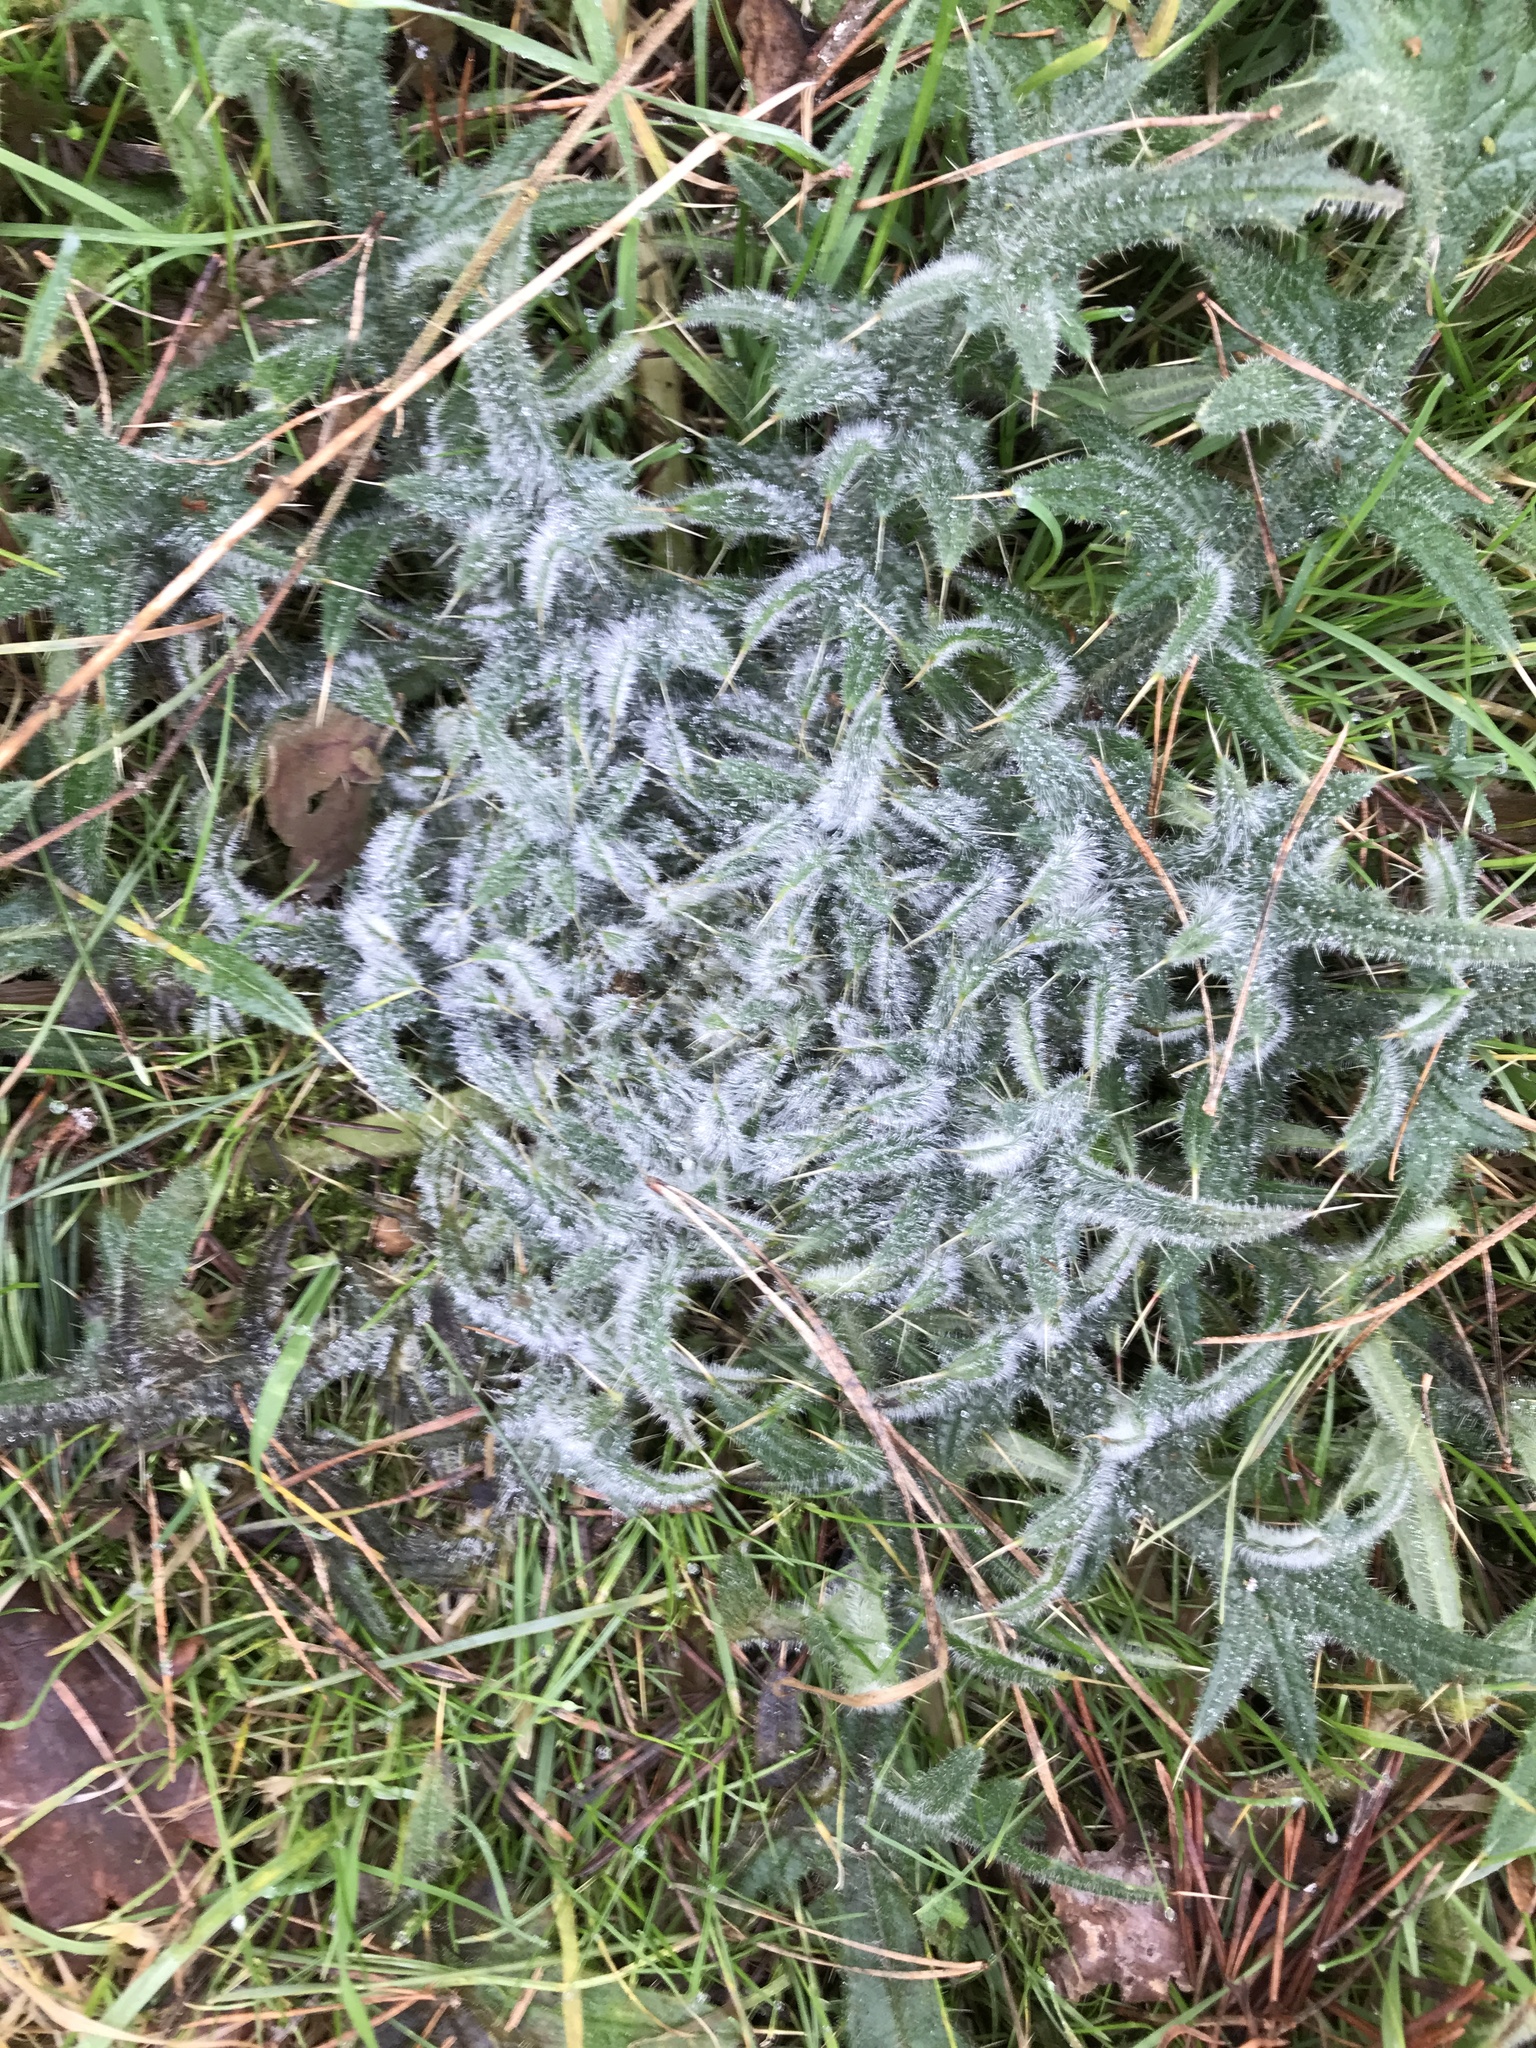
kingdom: Plantae
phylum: Tracheophyta
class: Magnoliopsida
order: Asterales
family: Asteraceae
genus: Cirsium
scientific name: Cirsium vulgare
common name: Bull thistle
